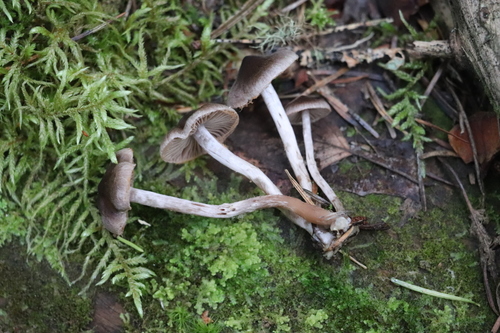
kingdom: Fungi
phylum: Basidiomycota
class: Agaricomycetes
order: Agaricales
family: Cortinariaceae
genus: Cortinarius
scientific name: Cortinarius
